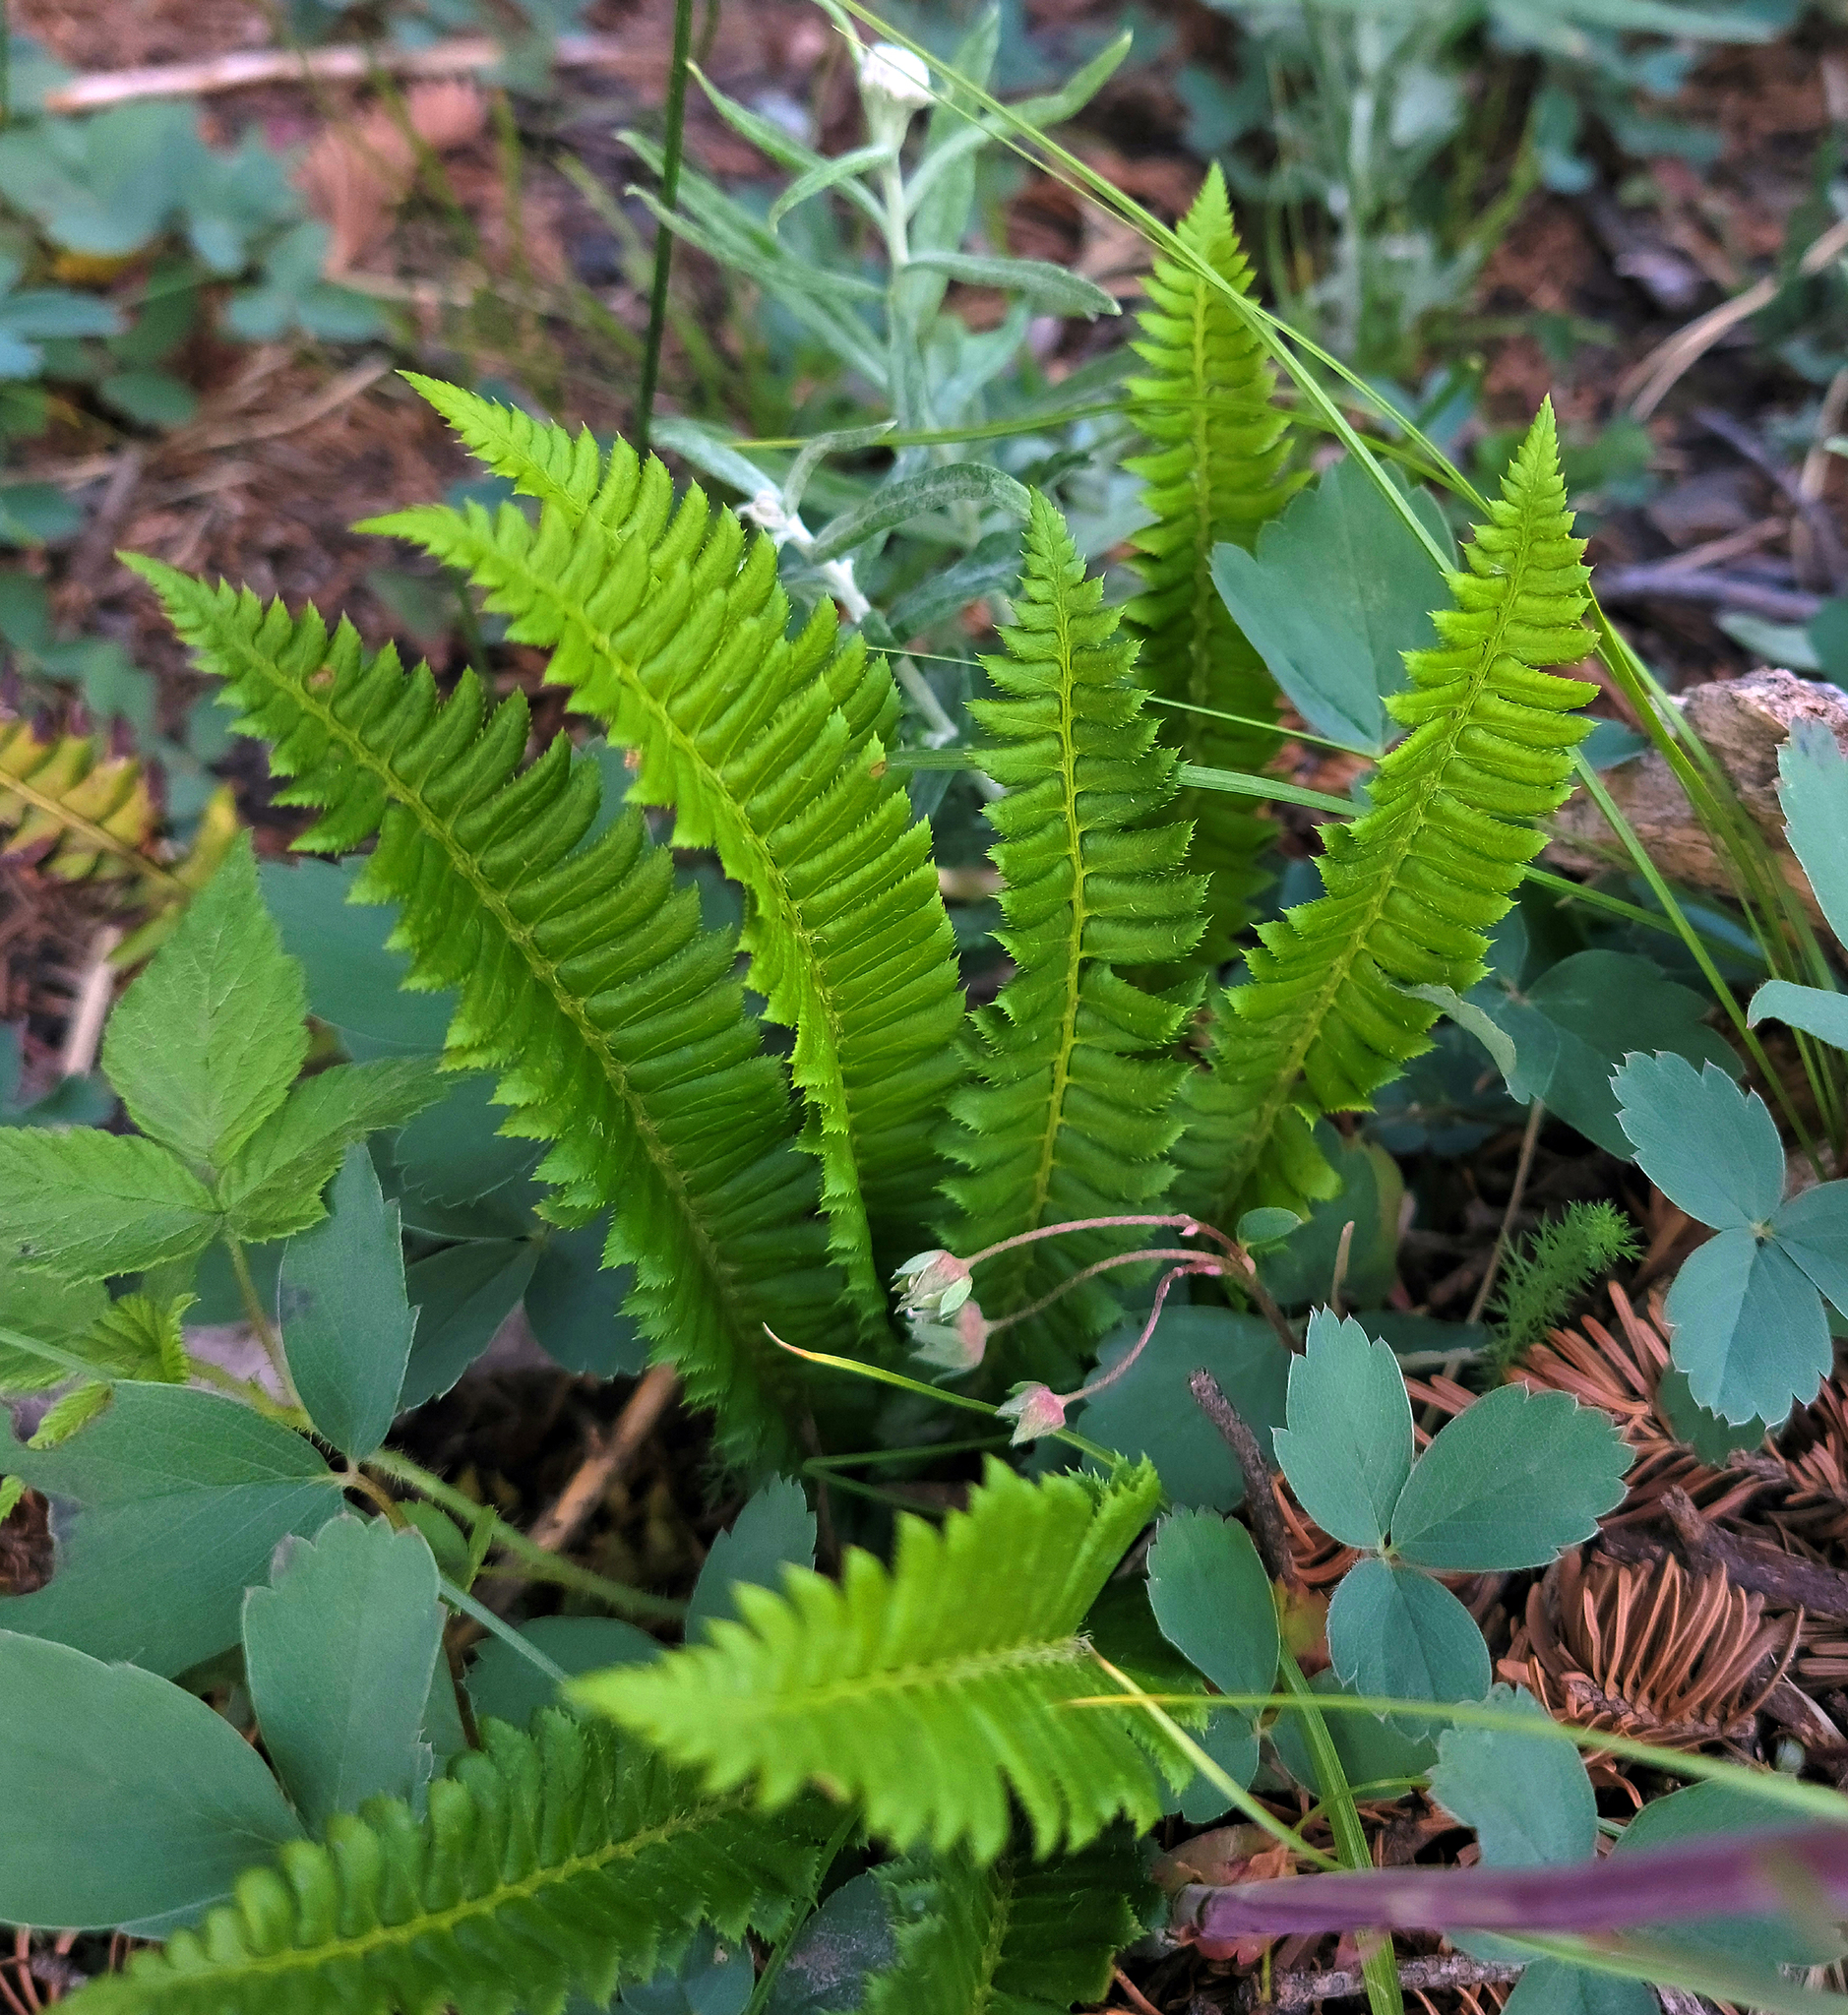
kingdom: Plantae
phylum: Tracheophyta
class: Polypodiopsida
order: Polypodiales
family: Dryopteridaceae
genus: Polystichum
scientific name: Polystichum lonchitis
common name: Holly fern
